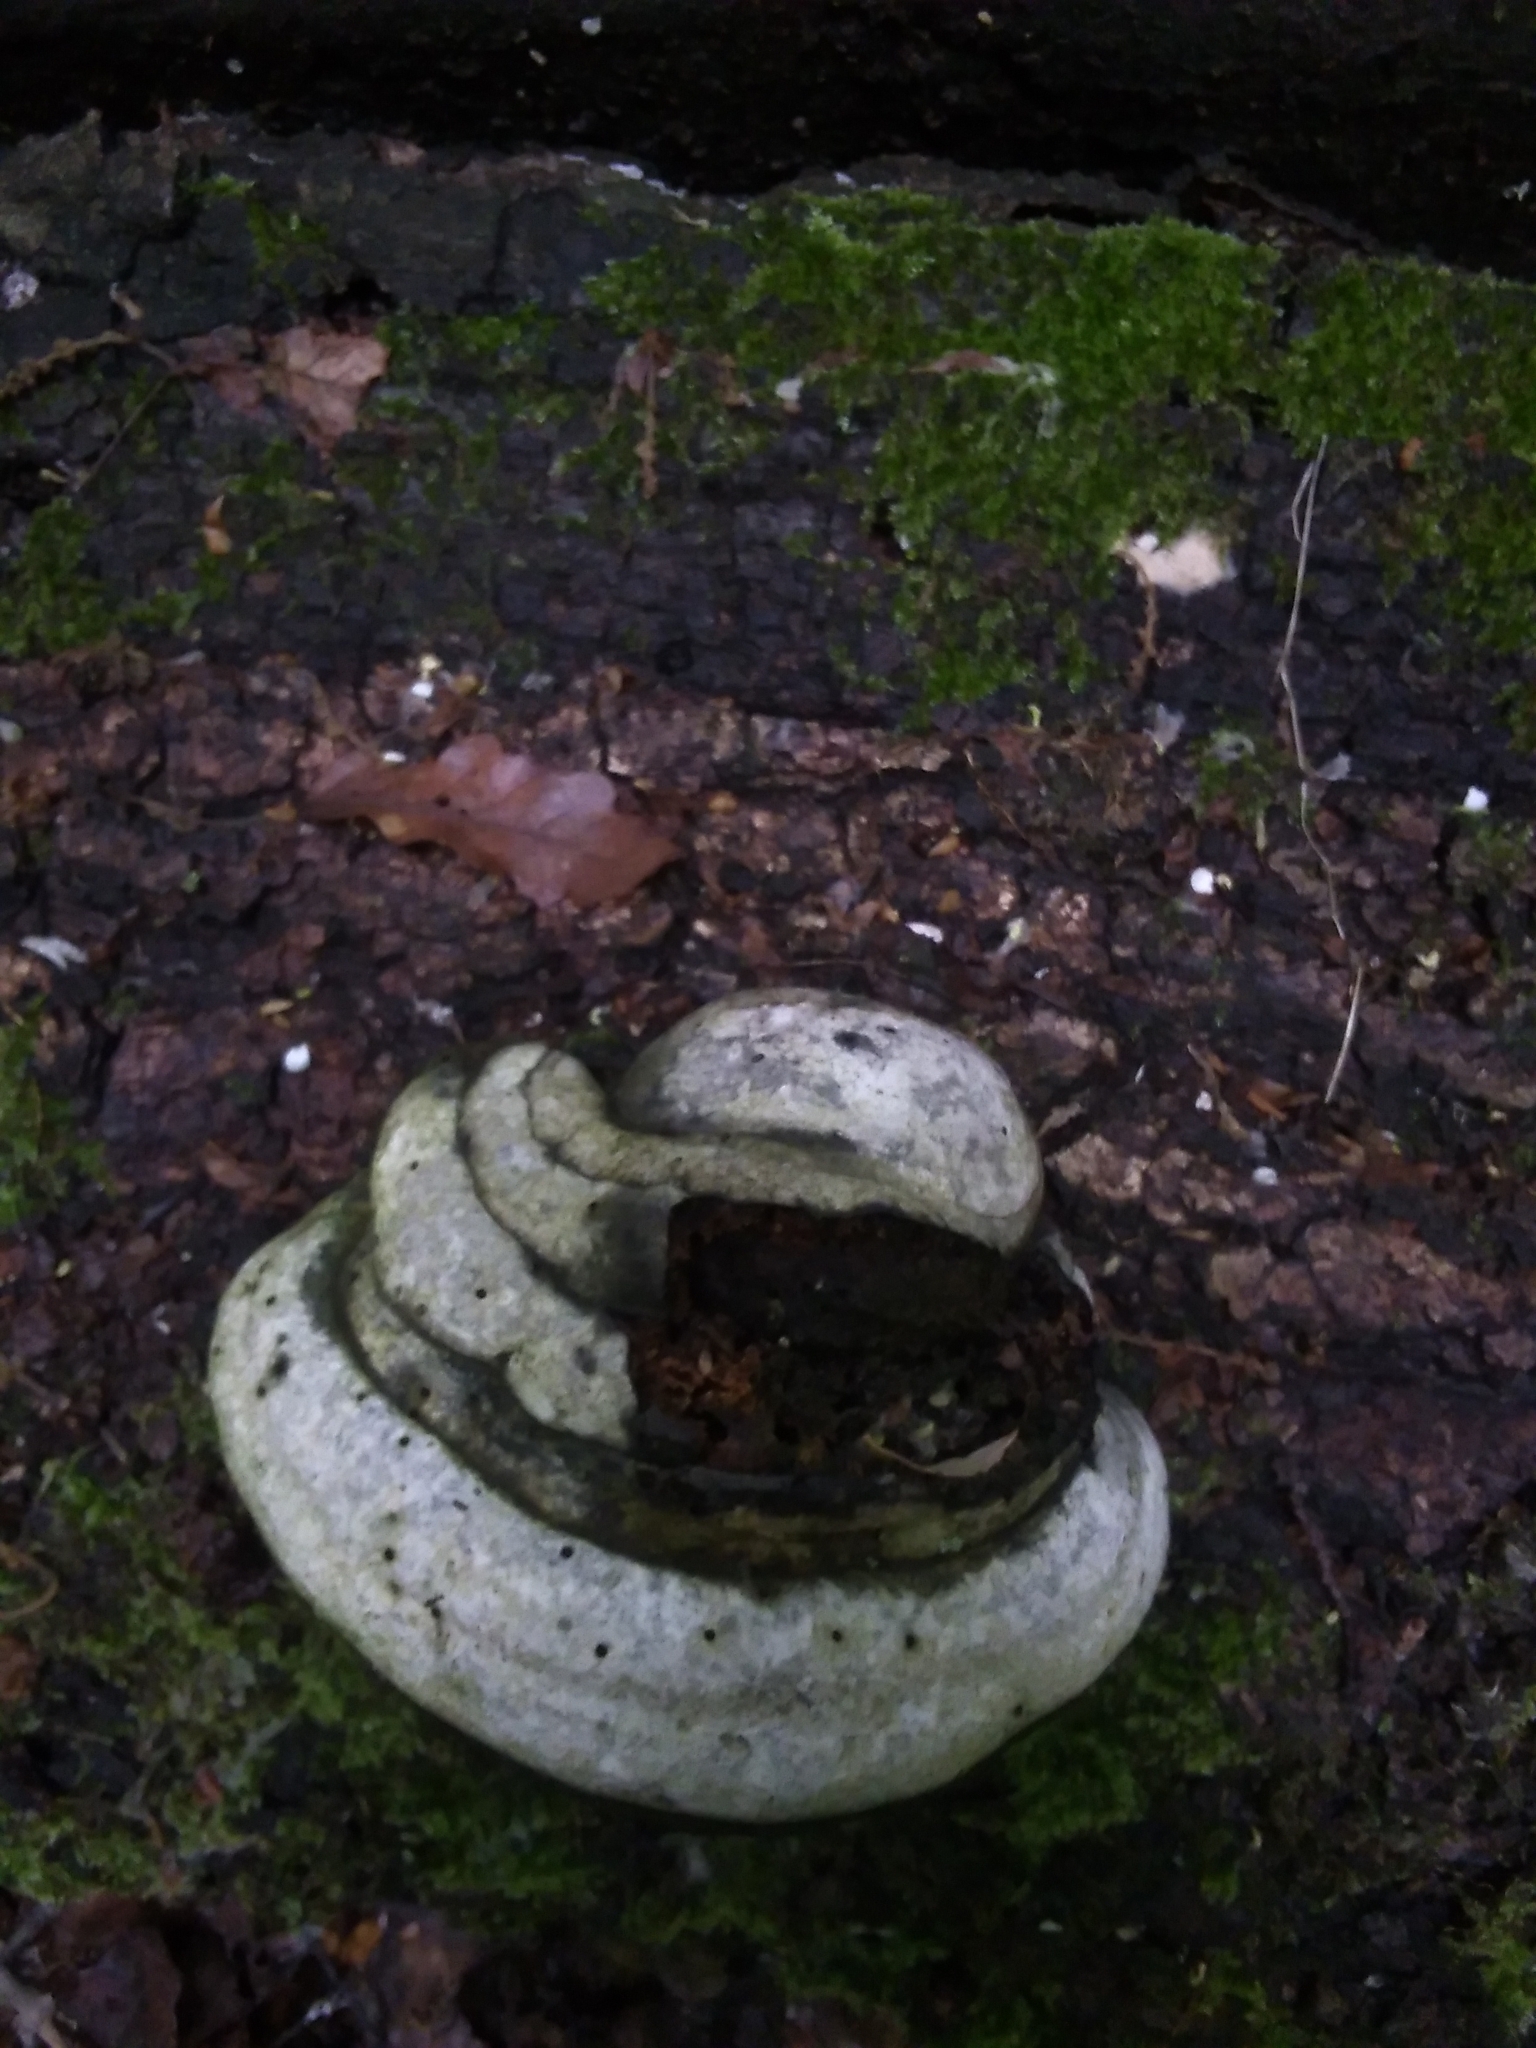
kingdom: Fungi
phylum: Basidiomycota
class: Agaricomycetes
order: Polyporales
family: Polyporaceae
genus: Fomes
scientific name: Fomes fomentarius
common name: Hoof fungus
